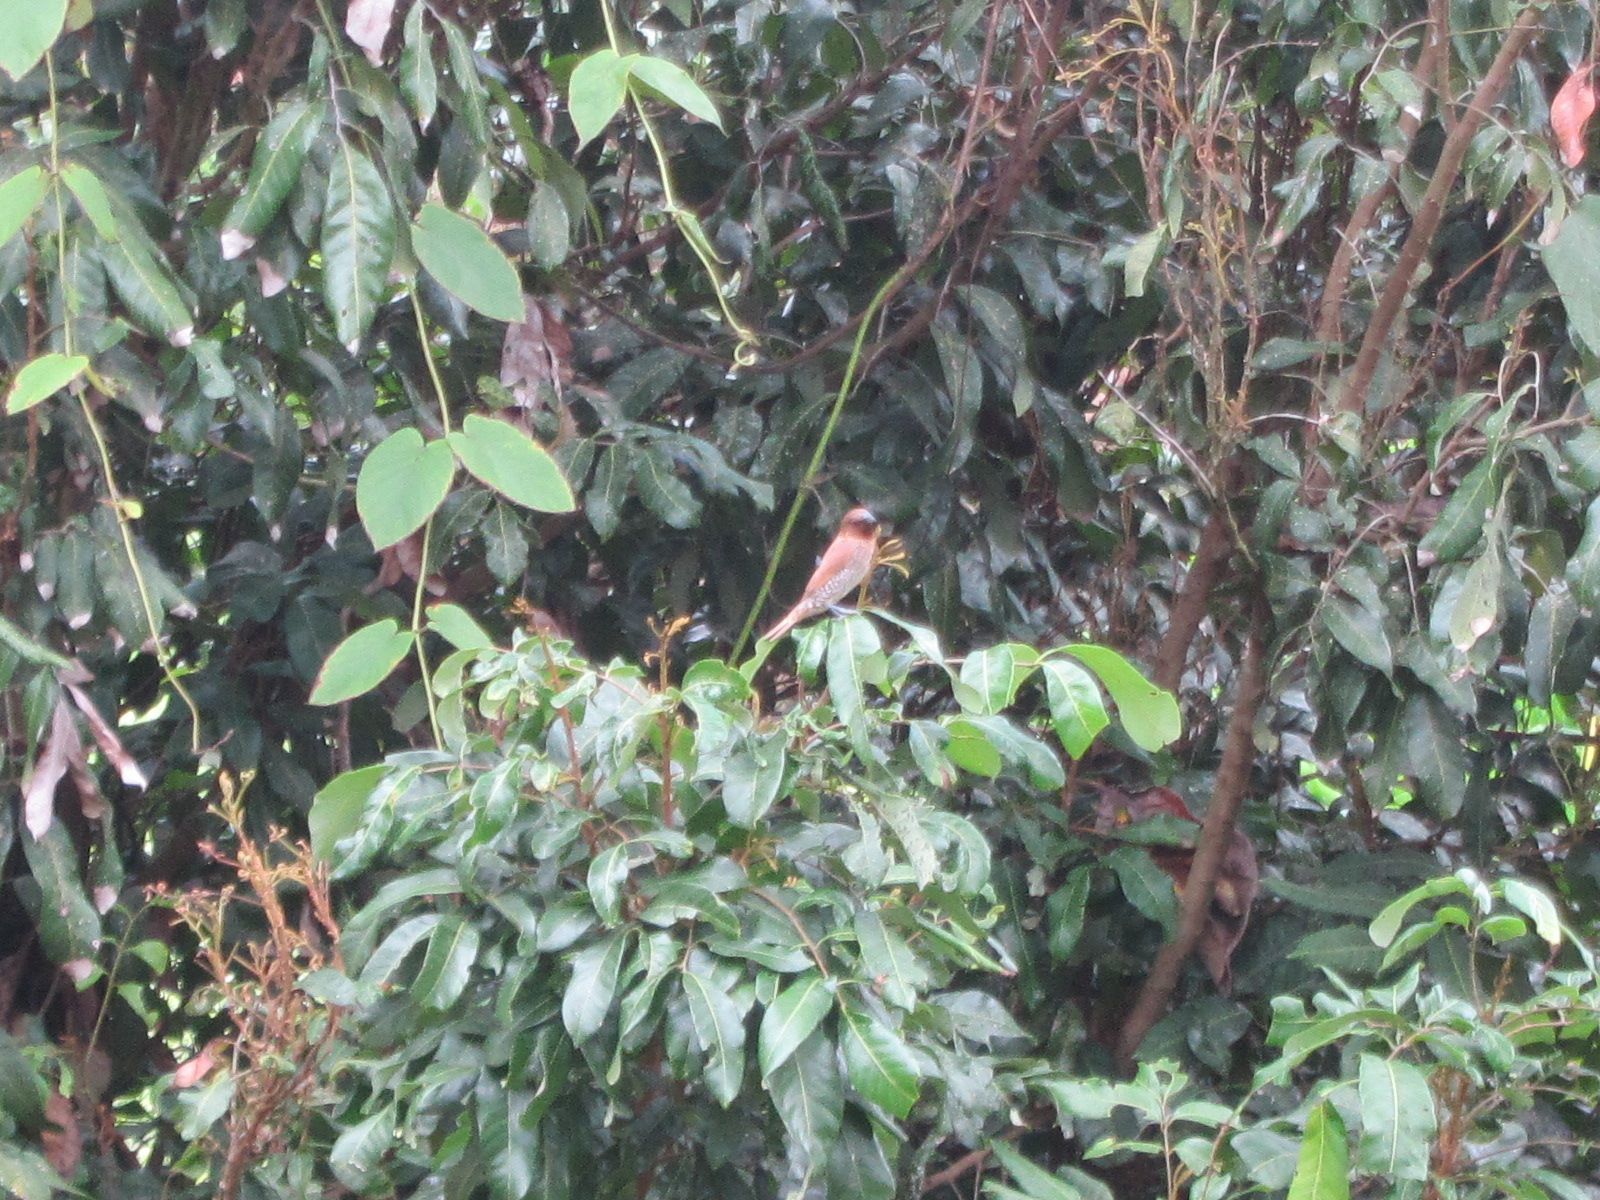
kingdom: Animalia
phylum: Chordata
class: Aves
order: Passeriformes
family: Estrildidae
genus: Lonchura
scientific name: Lonchura punctulata
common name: Scaly-breasted munia
